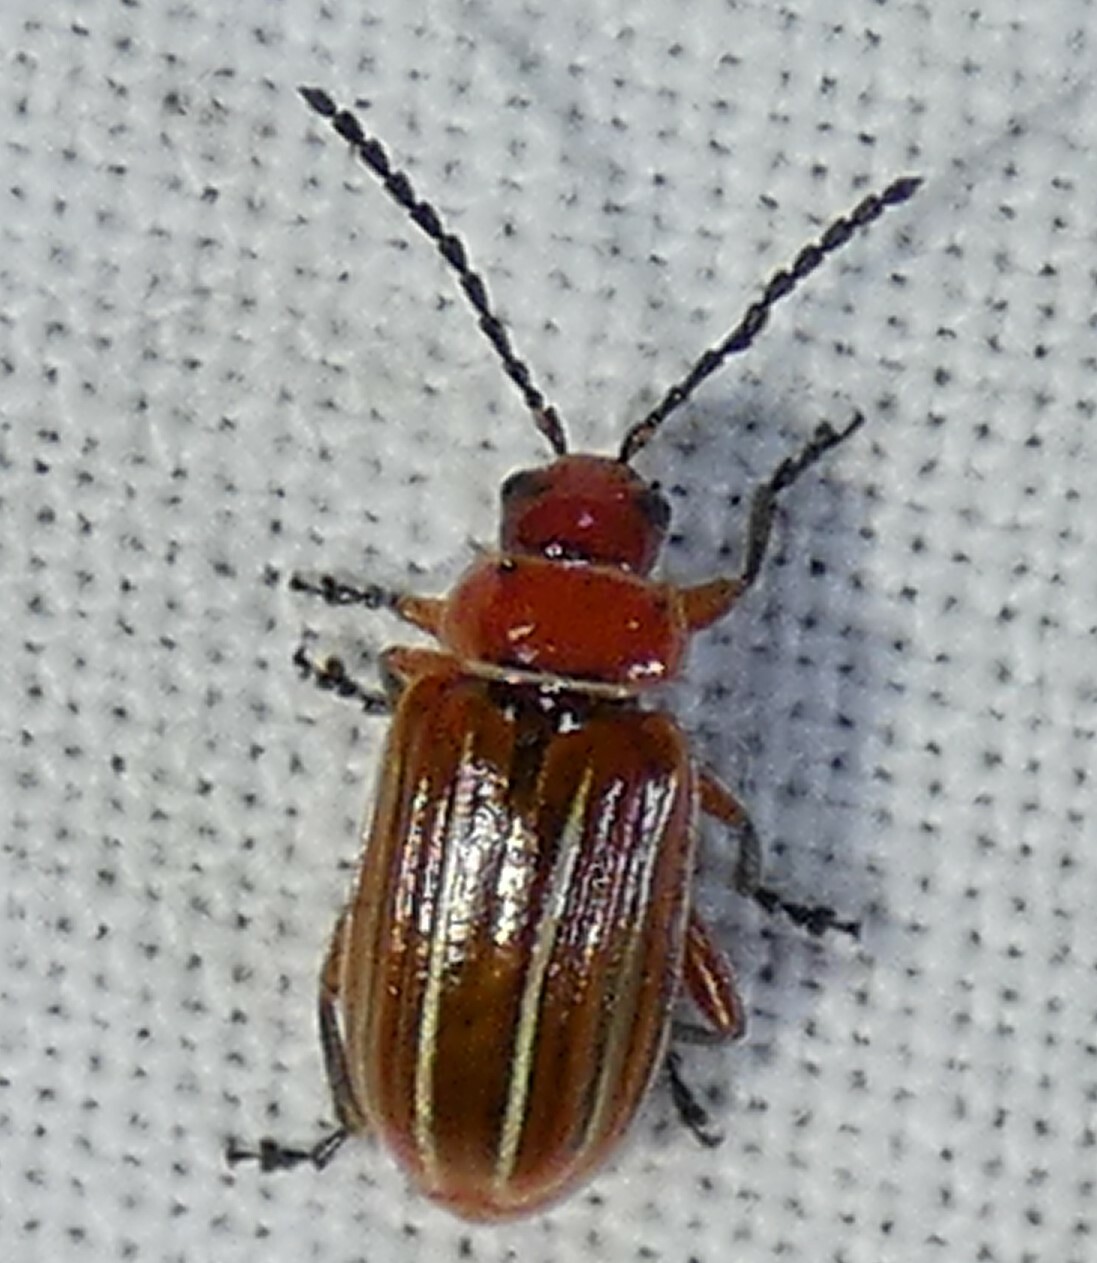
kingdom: Animalia
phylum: Arthropoda
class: Insecta
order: Coleoptera
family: Chrysomelidae
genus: Disonycha
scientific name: Disonycha conjugata
